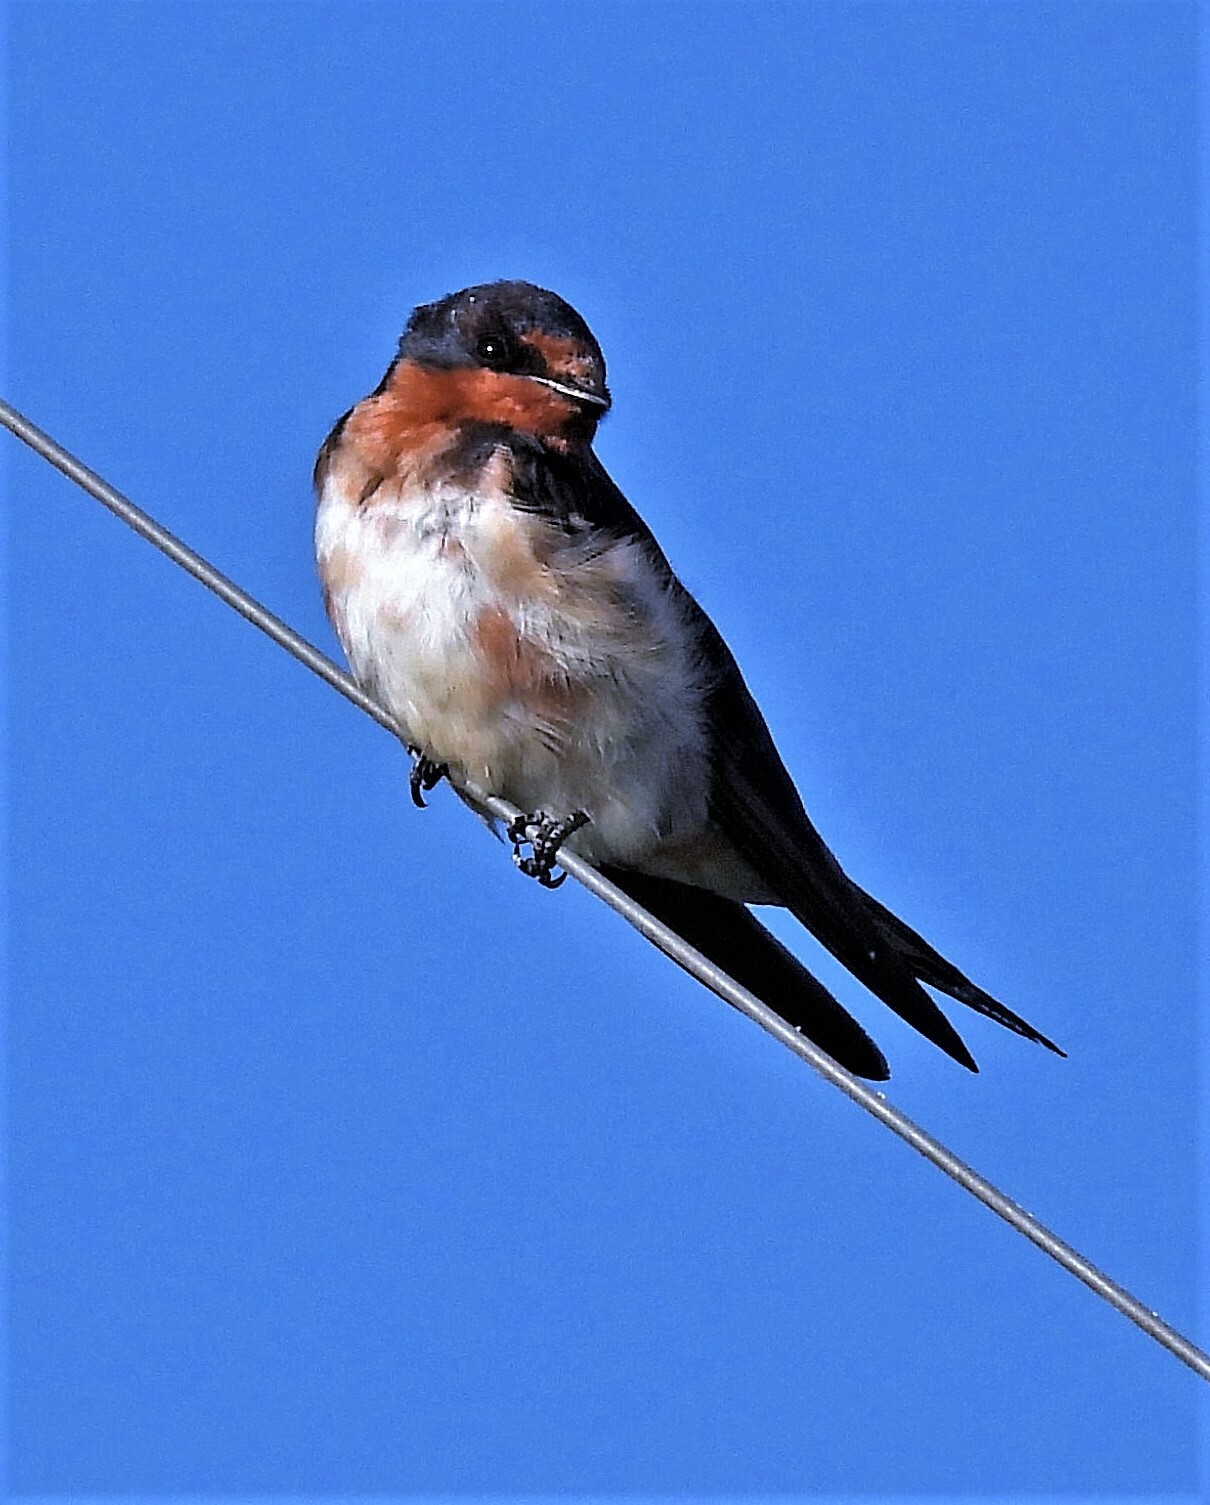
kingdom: Animalia
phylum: Chordata
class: Aves
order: Passeriformes
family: Hirundinidae
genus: Hirundo
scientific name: Hirundo rustica
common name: Barn swallow
